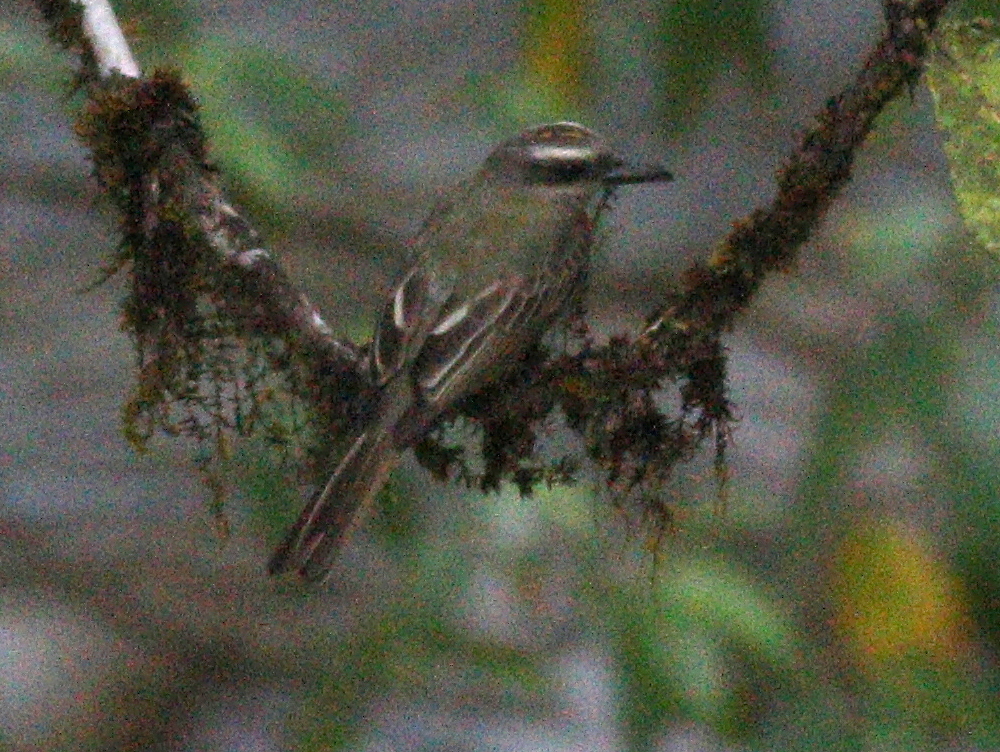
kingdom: Animalia
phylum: Chordata
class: Aves
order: Passeriformes
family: Tyrannidae
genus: Myiodynastes
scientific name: Myiodynastes chrysocephalus
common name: Golden-crowned flycatcher
